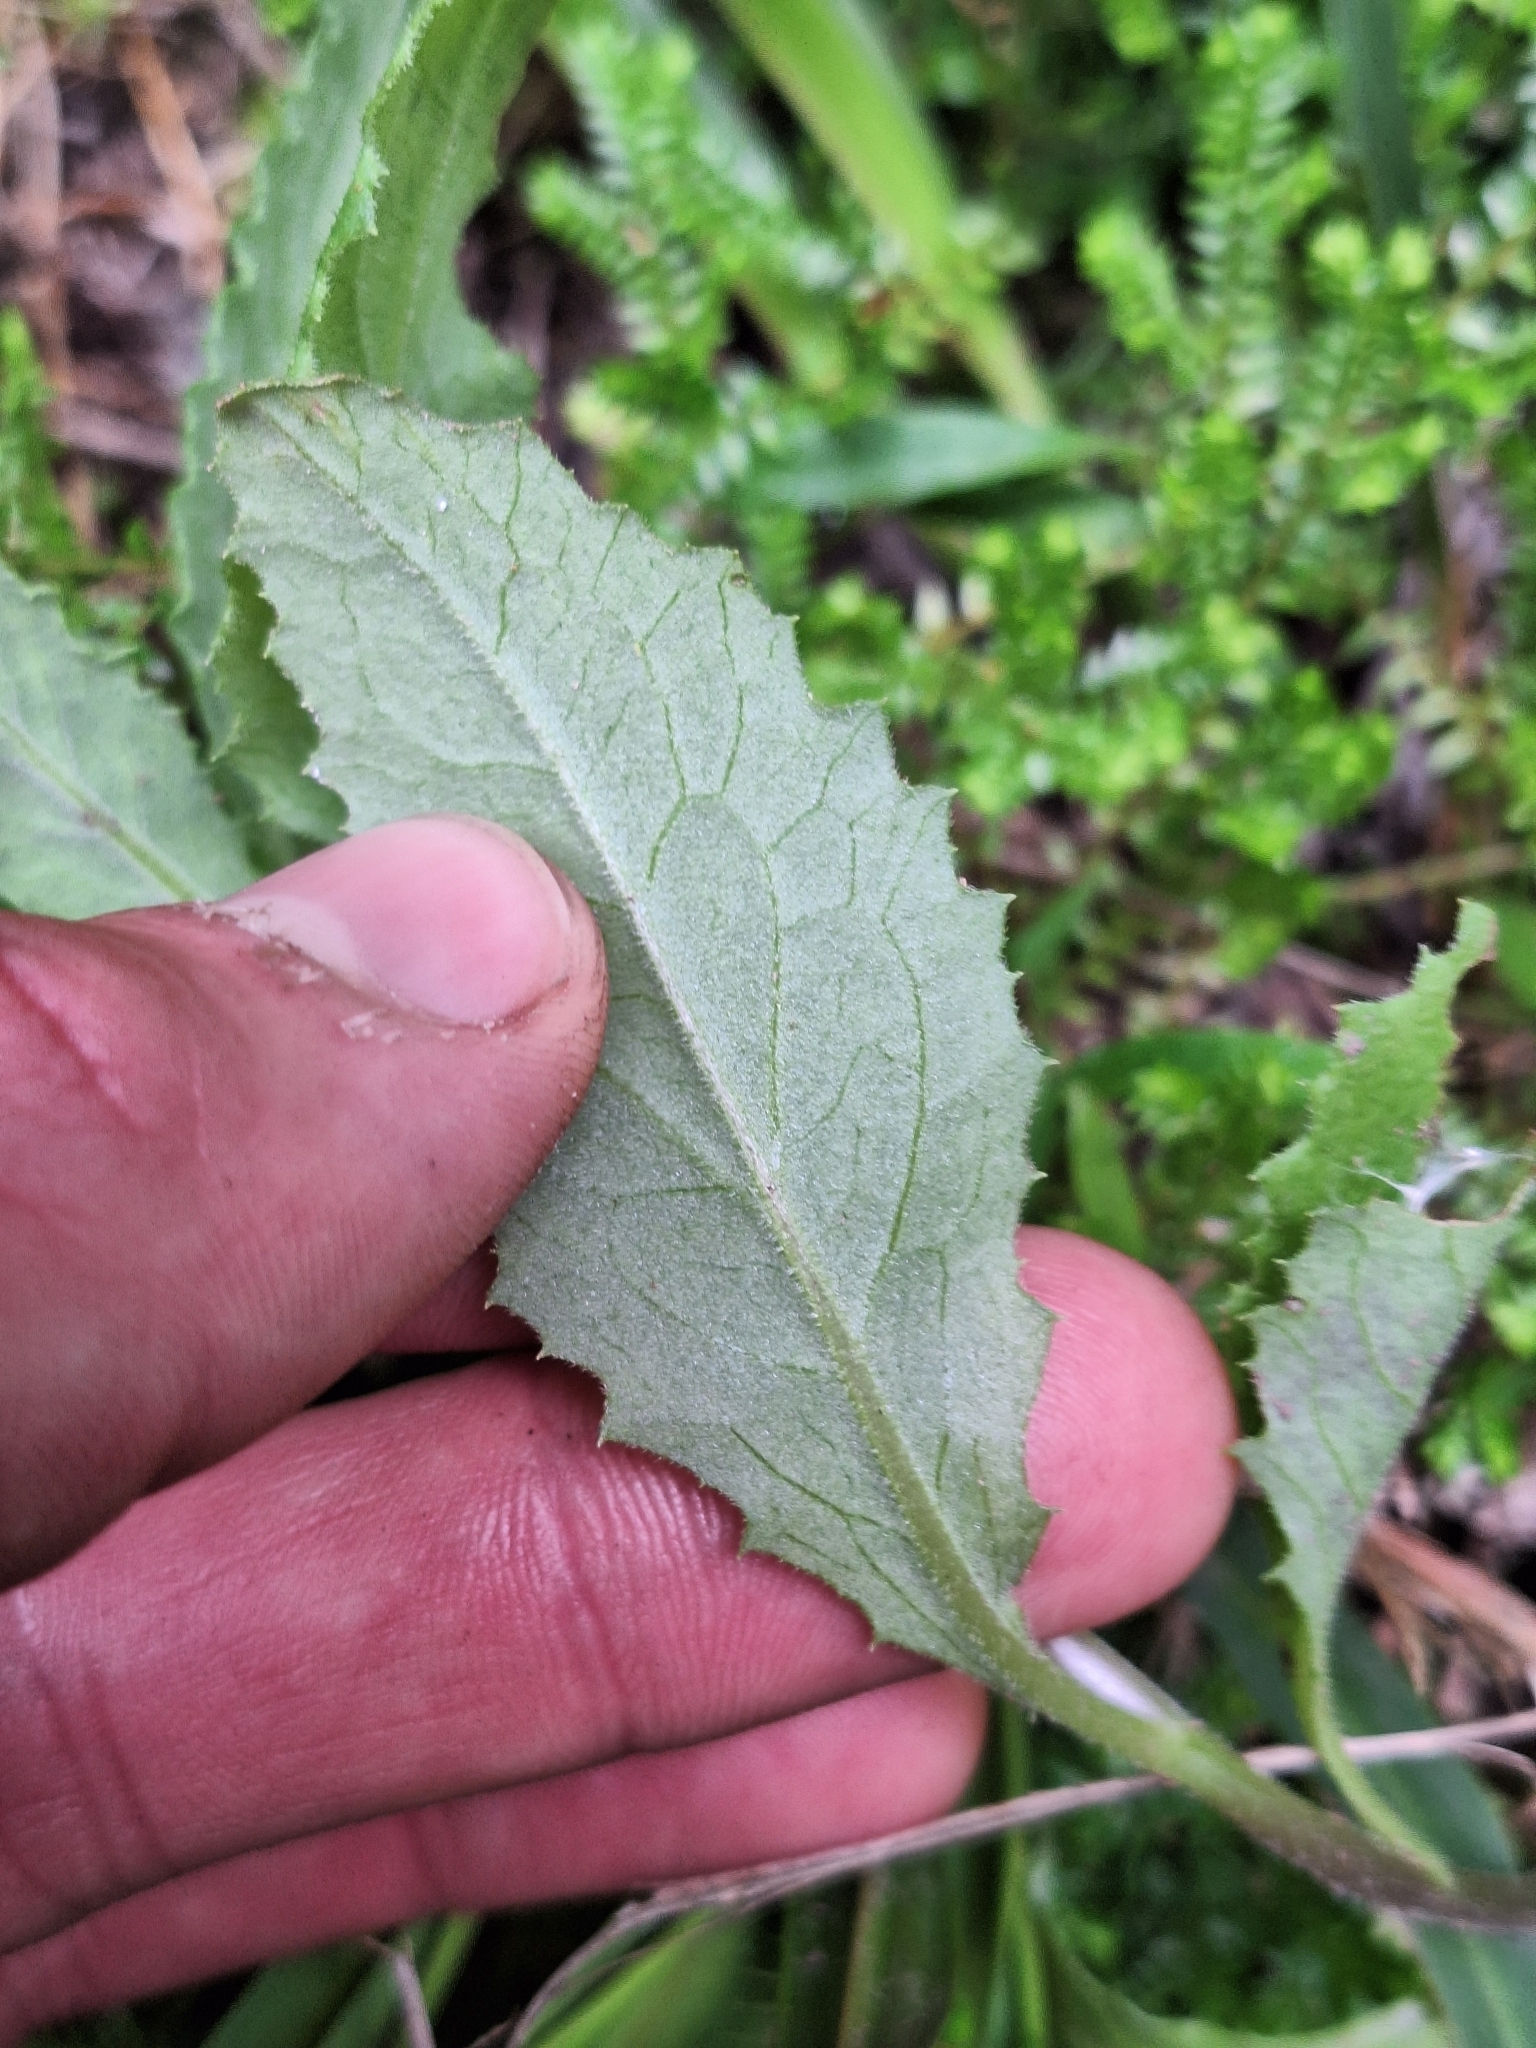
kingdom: Plantae
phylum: Tracheophyta
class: Magnoliopsida
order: Asterales
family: Asteraceae
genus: Senecio
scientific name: Senecio minimus
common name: Toothed fireweed
